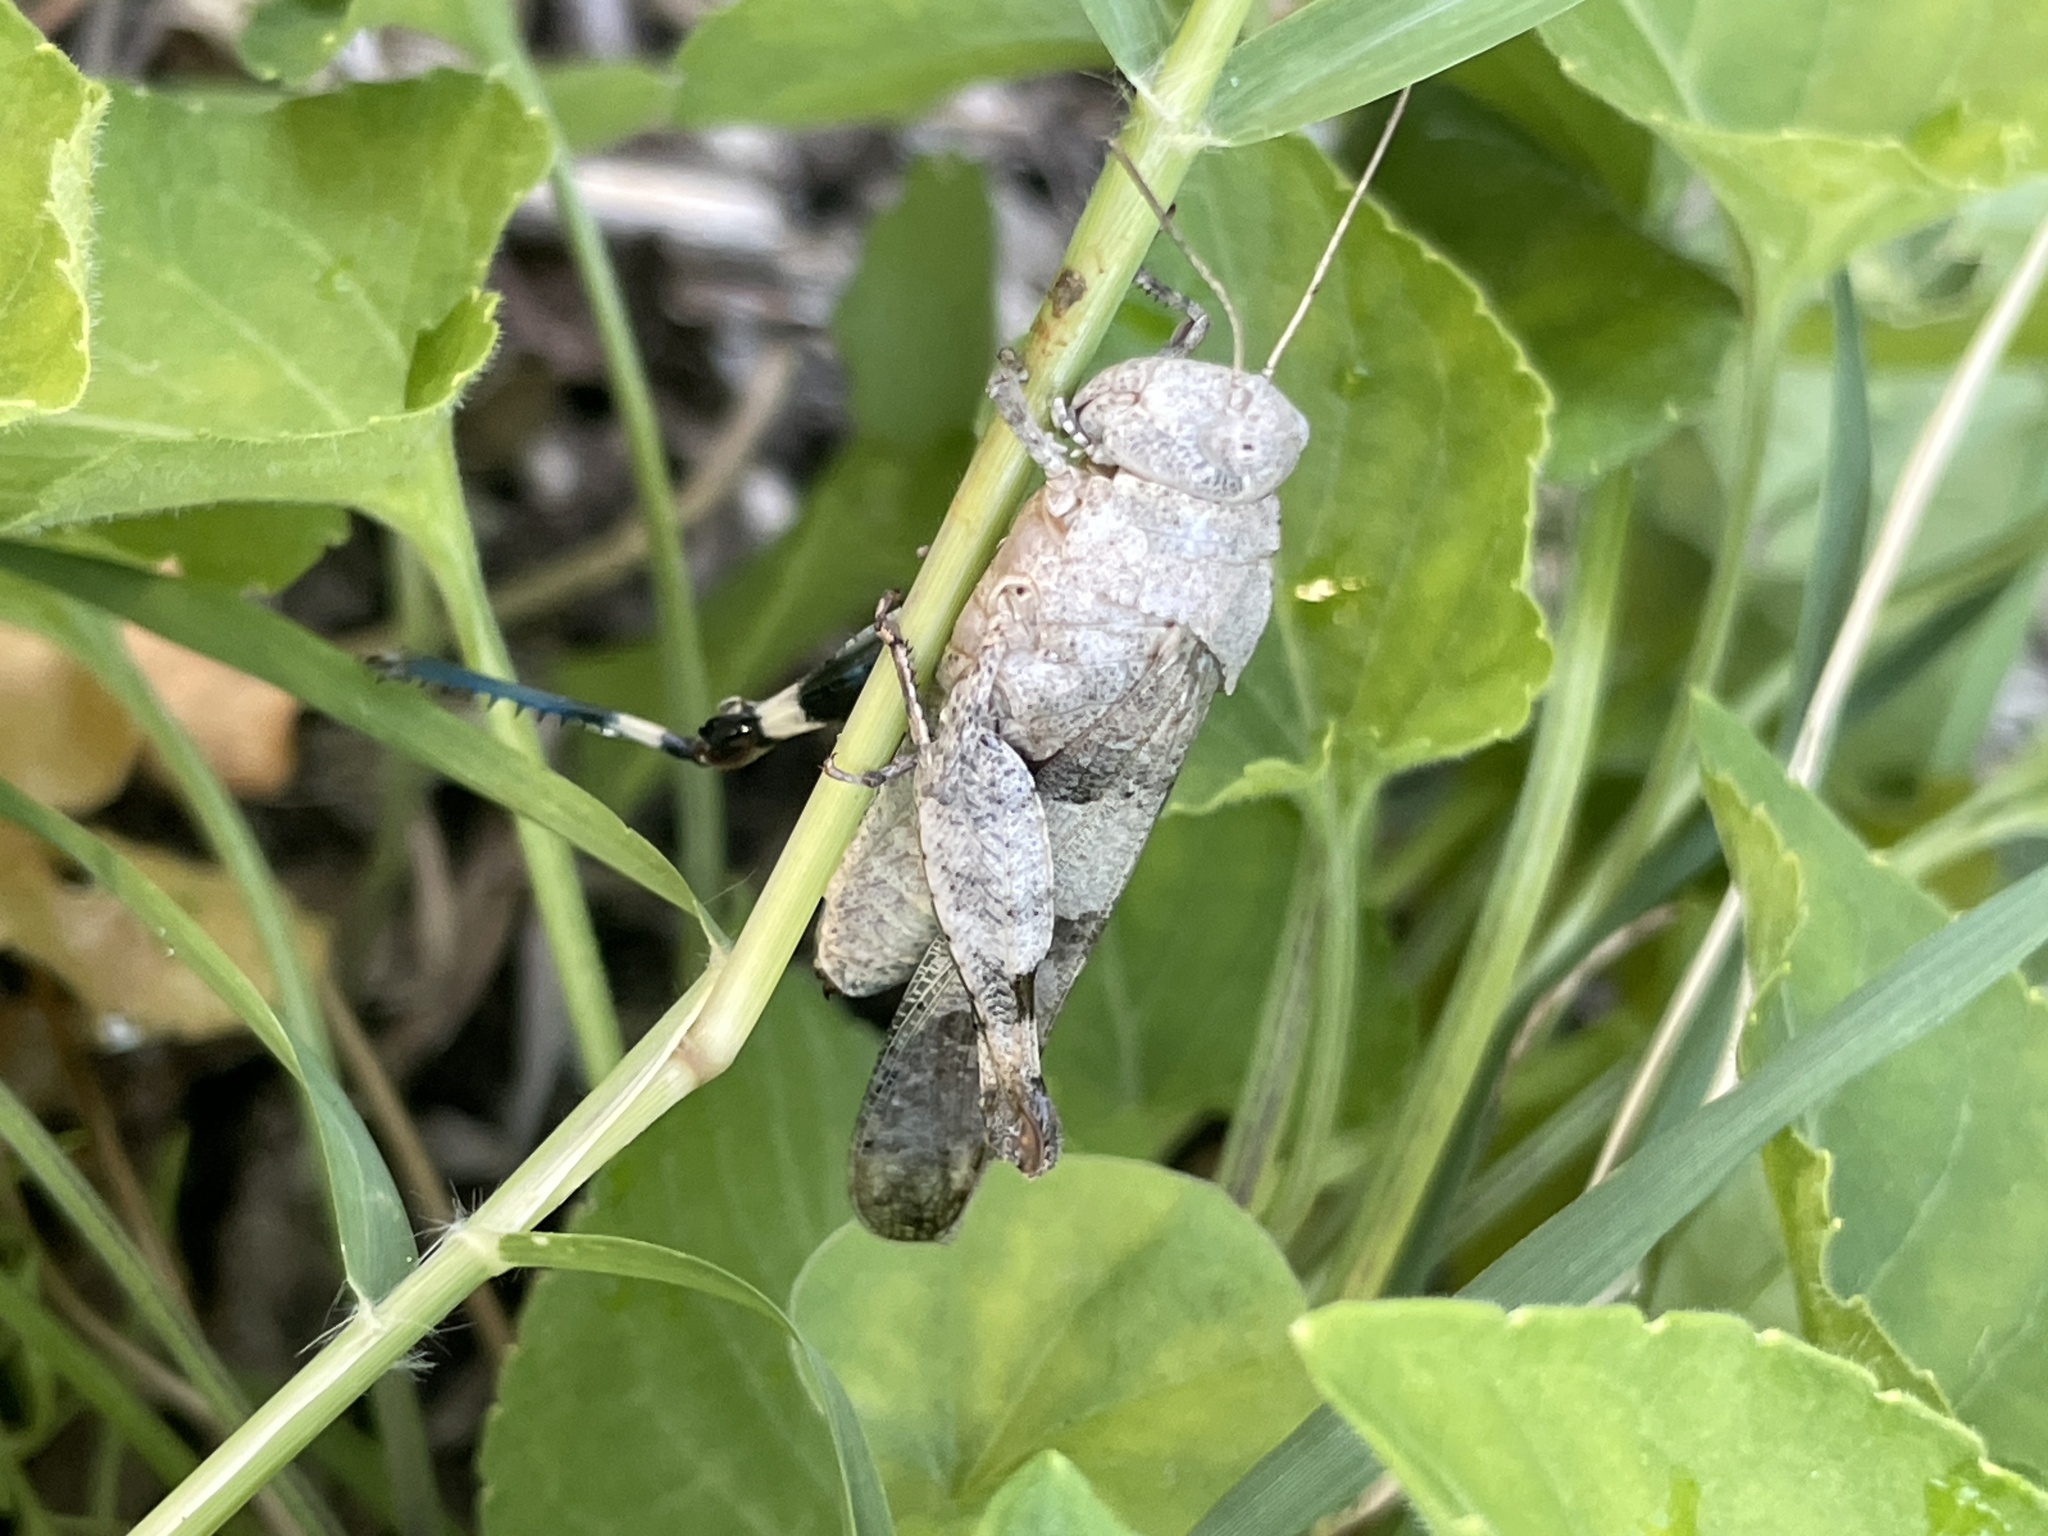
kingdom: Animalia
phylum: Arthropoda
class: Insecta
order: Orthoptera
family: Acrididae
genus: Oedipoda
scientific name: Oedipoda caerulescens
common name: Blue-winged grasshopper
